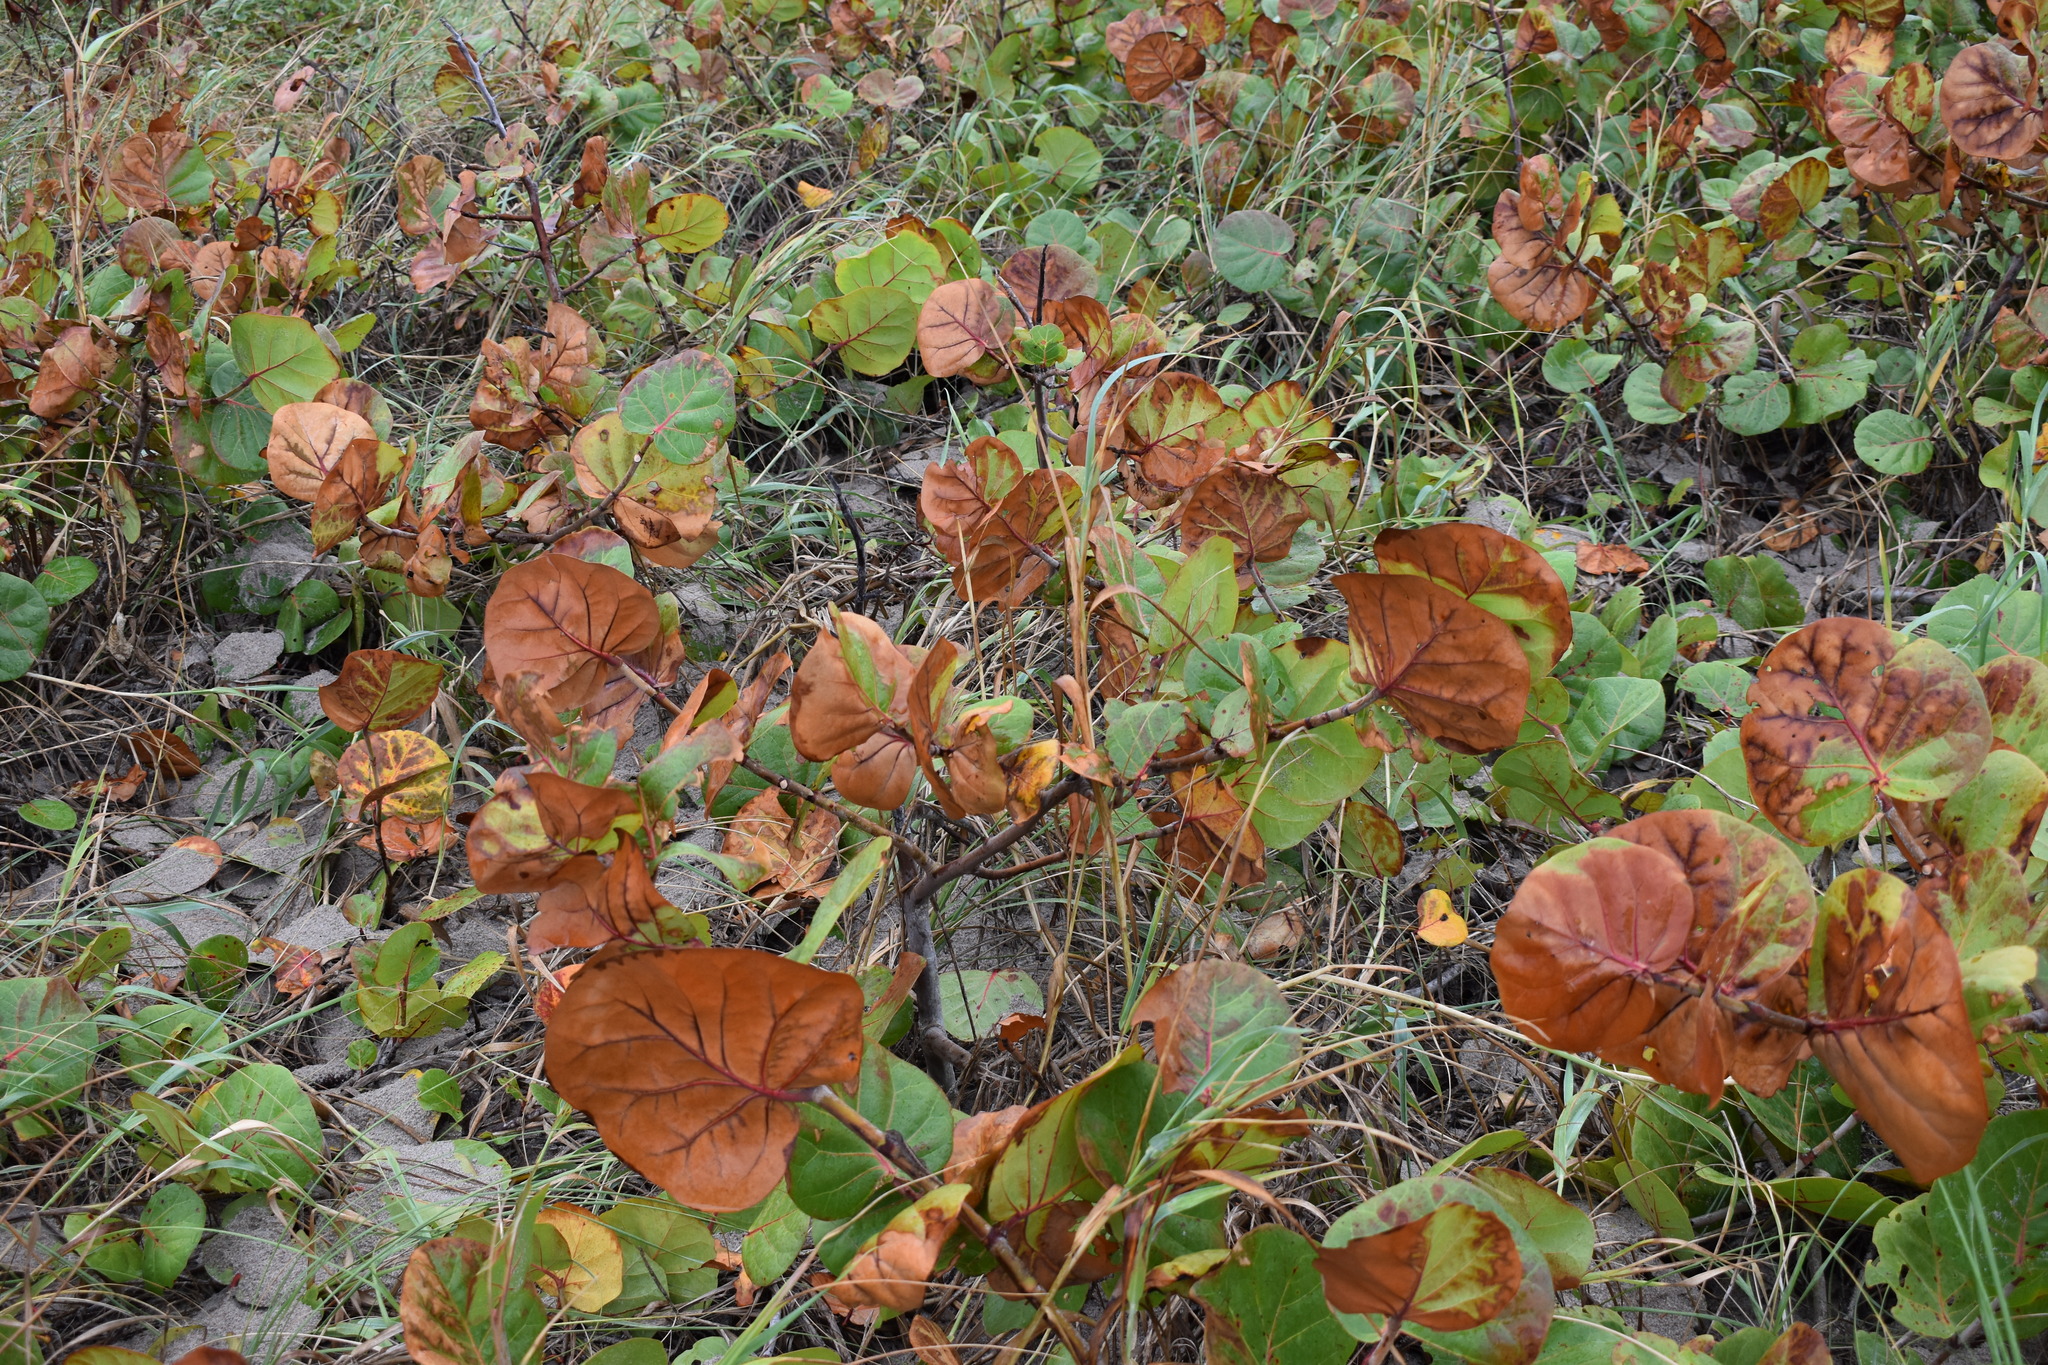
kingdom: Plantae
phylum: Tracheophyta
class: Magnoliopsida
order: Caryophyllales
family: Polygonaceae
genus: Coccoloba
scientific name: Coccoloba uvifera
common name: Seagrape
